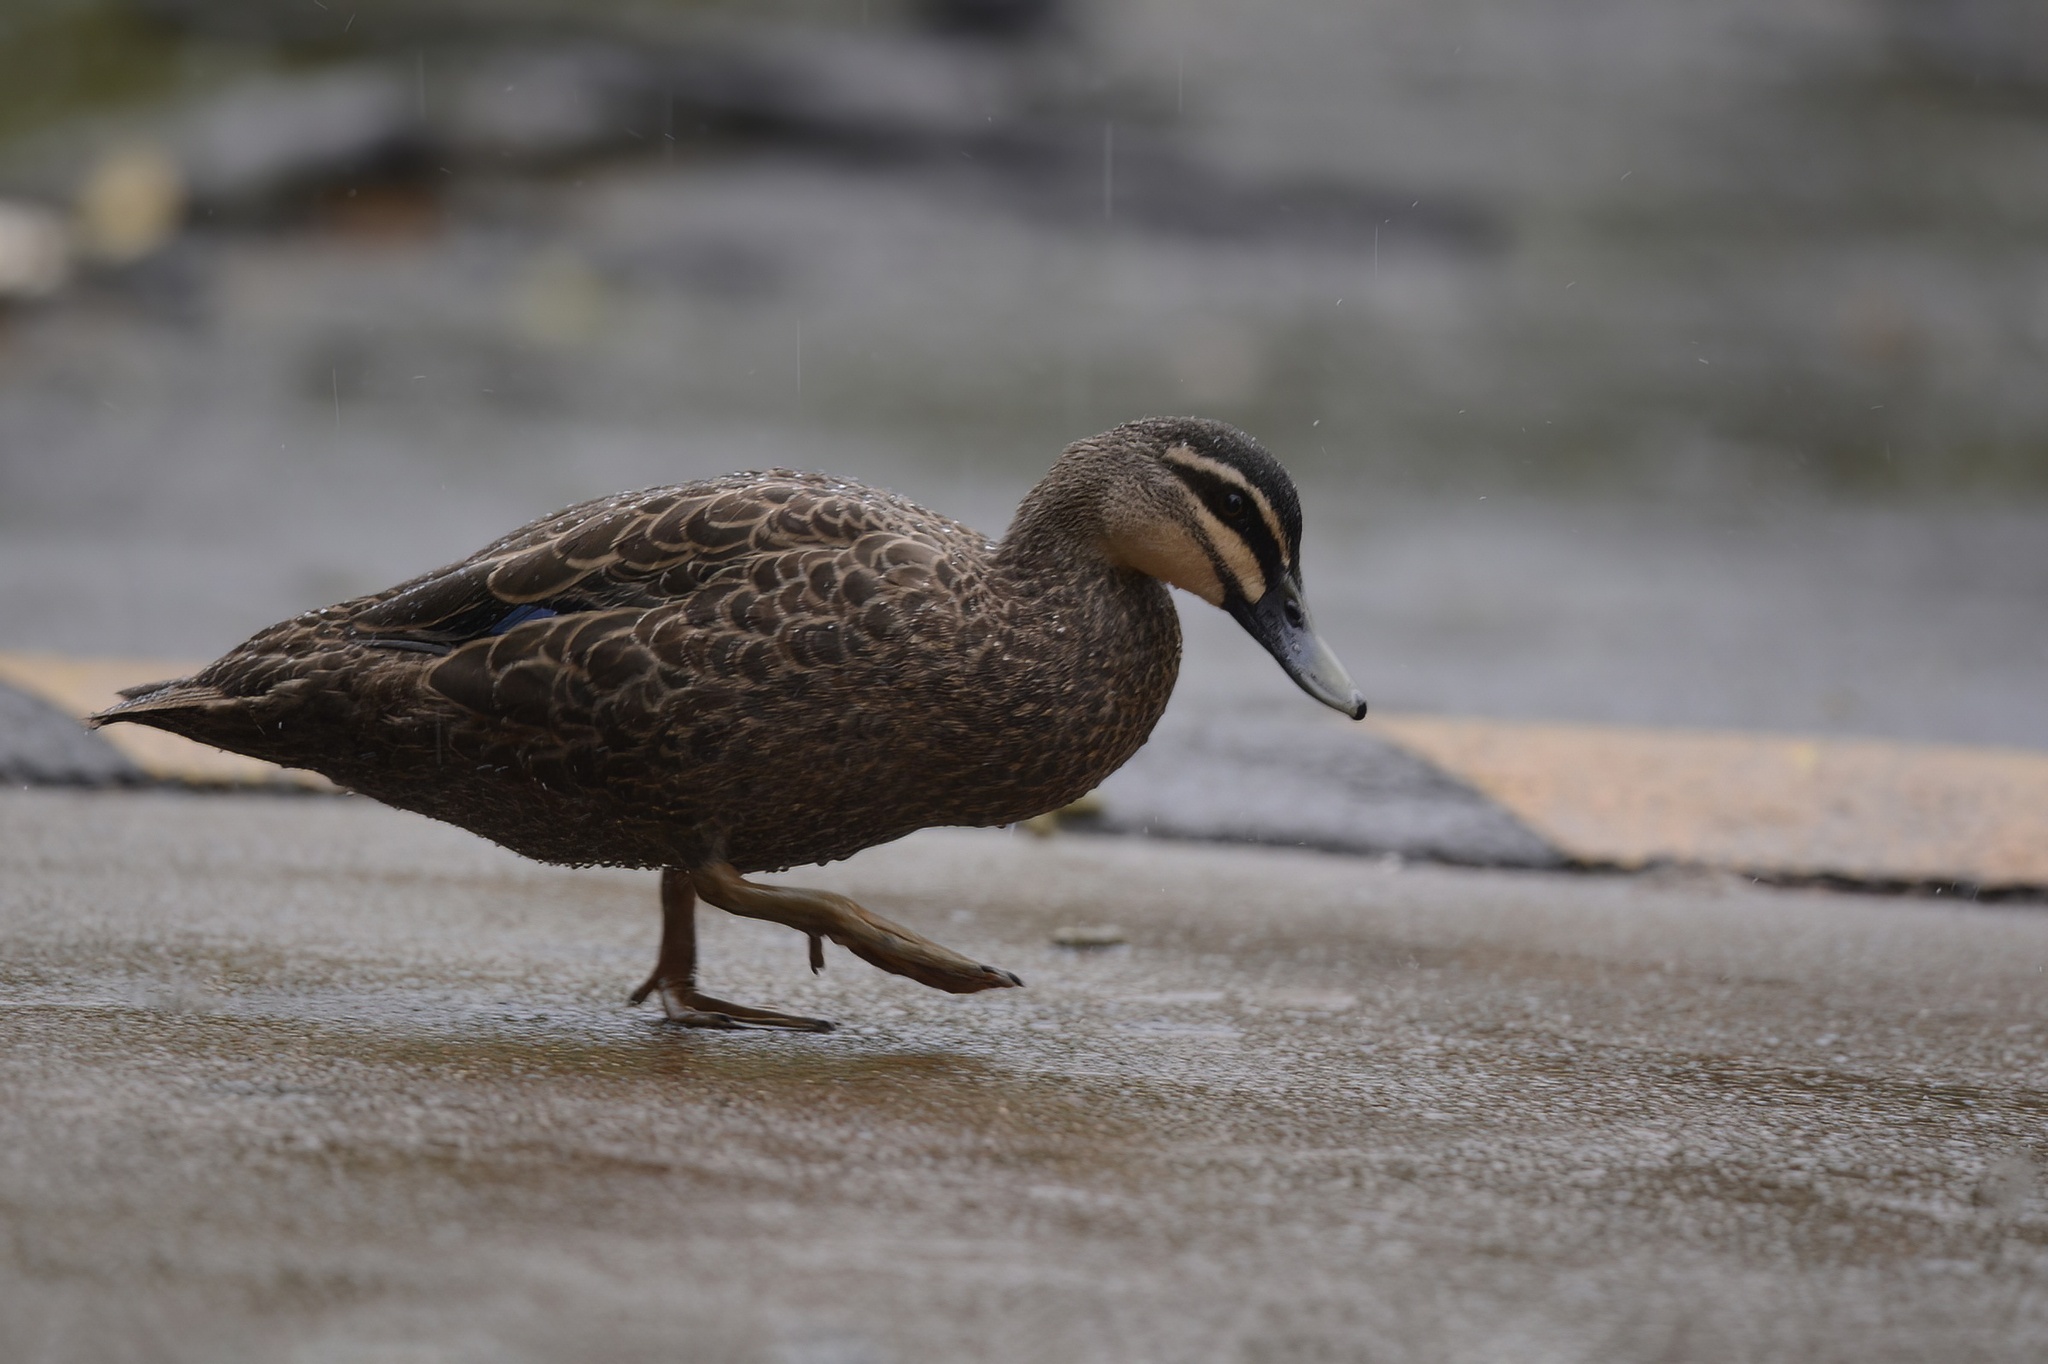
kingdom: Animalia
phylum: Chordata
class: Aves
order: Anseriformes
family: Anatidae
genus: Anas
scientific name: Anas superciliosa
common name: Pacific black duck
